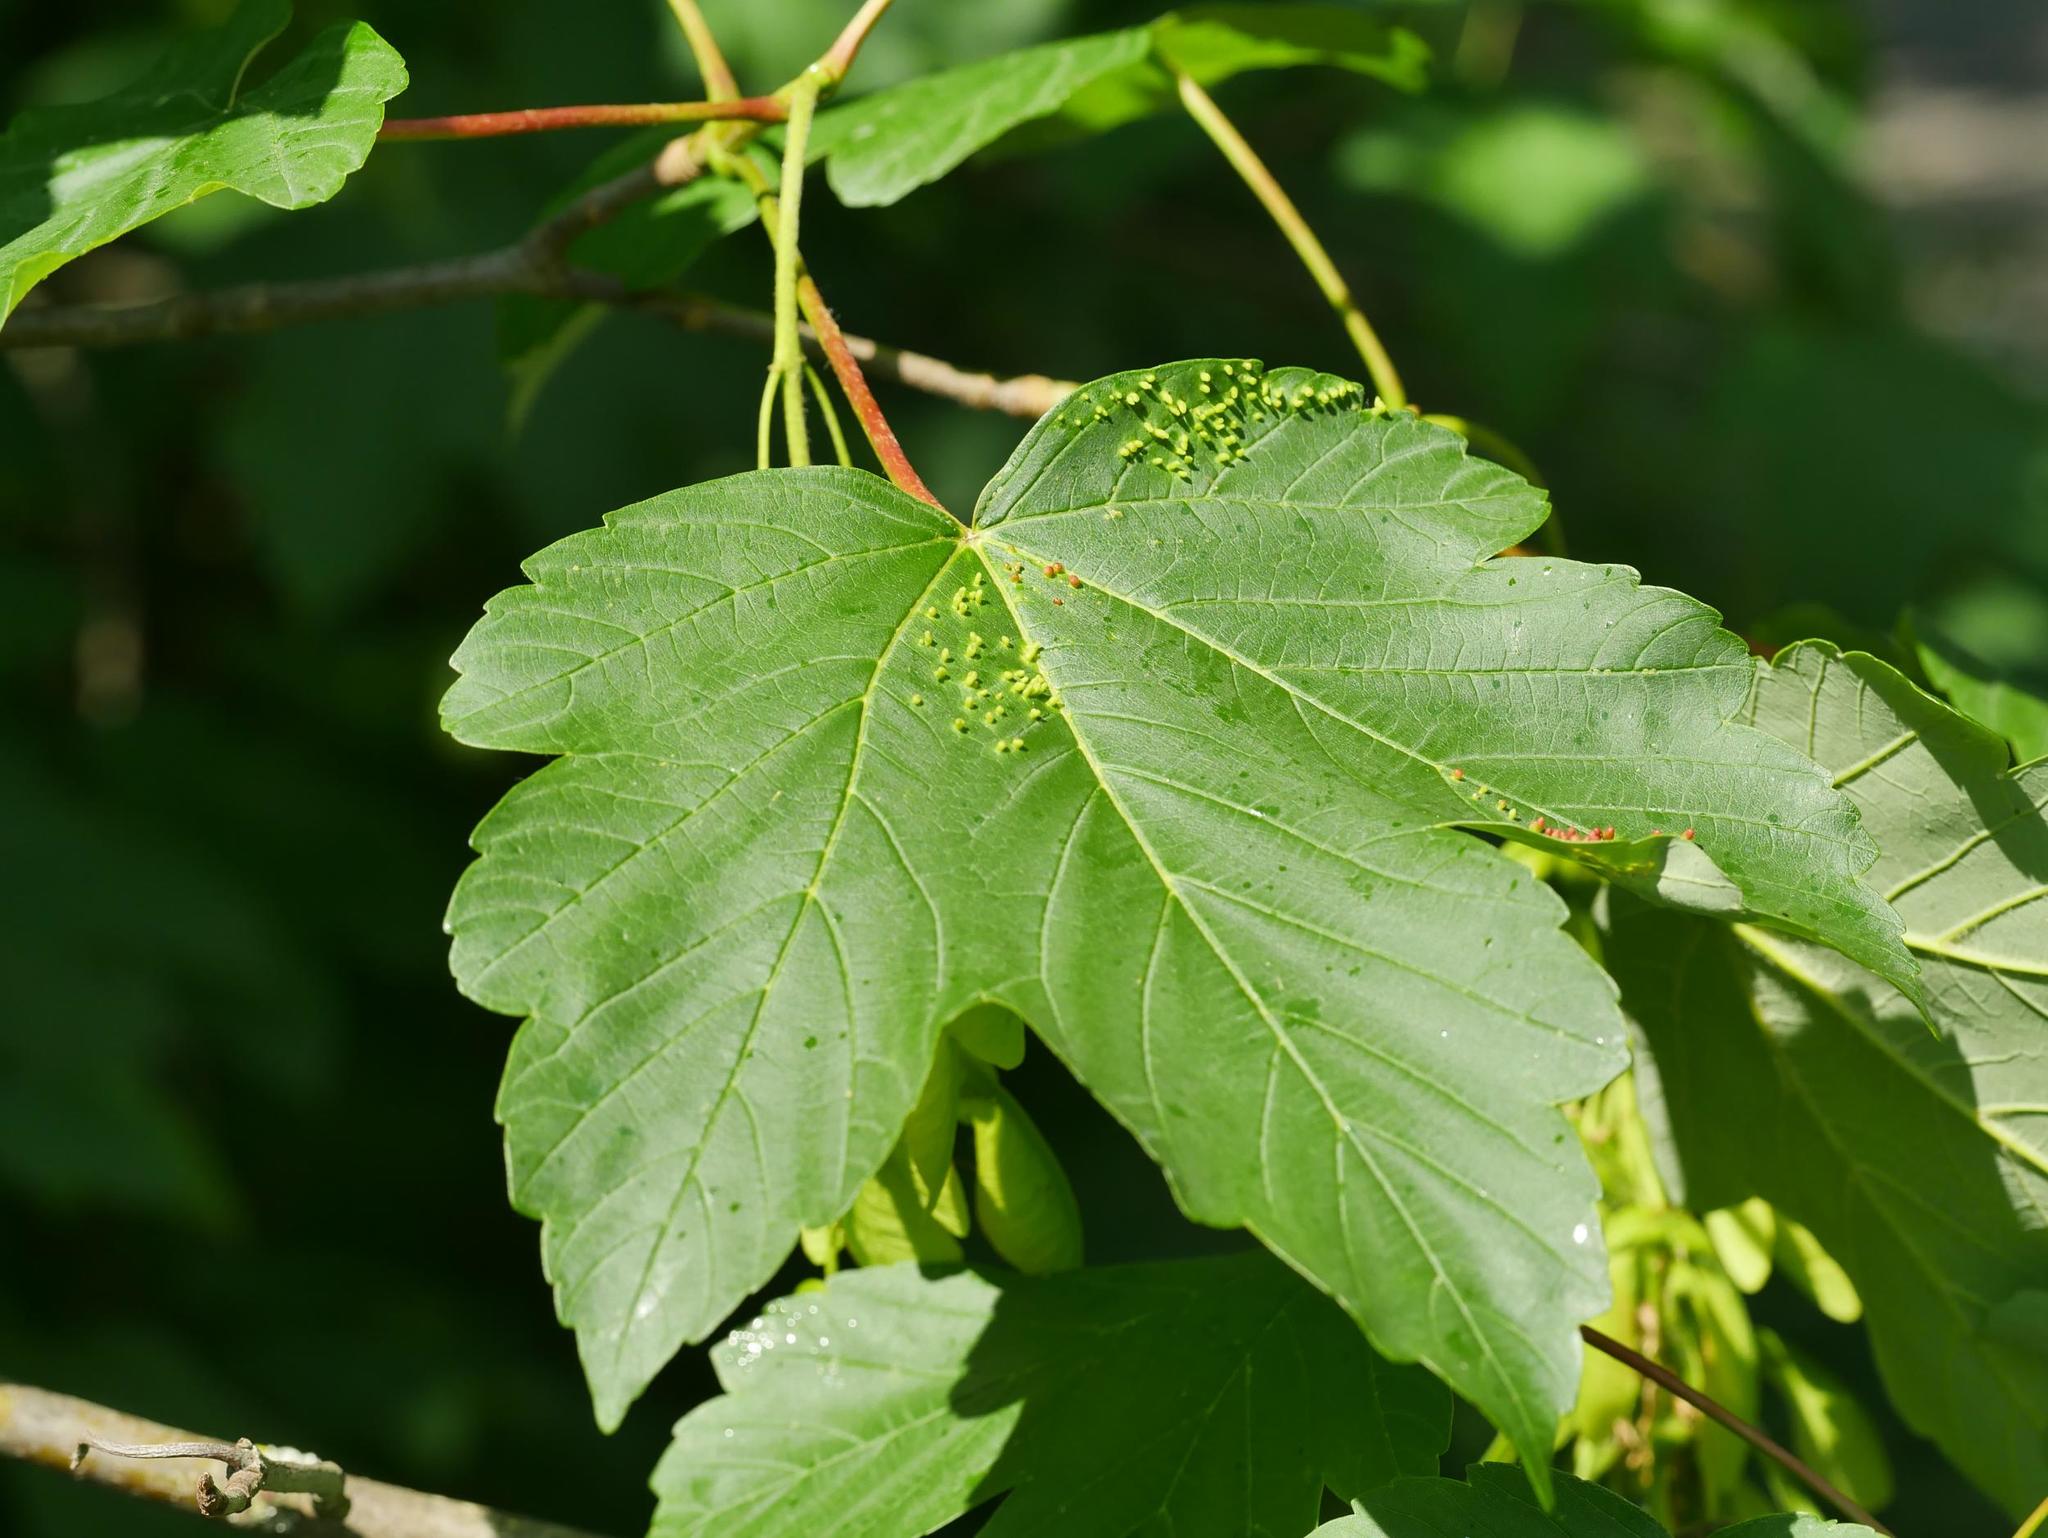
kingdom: Plantae
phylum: Tracheophyta
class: Magnoliopsida
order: Sapindales
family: Sapindaceae
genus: Acer
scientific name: Acer pseudoplatanus
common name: Sycamore
